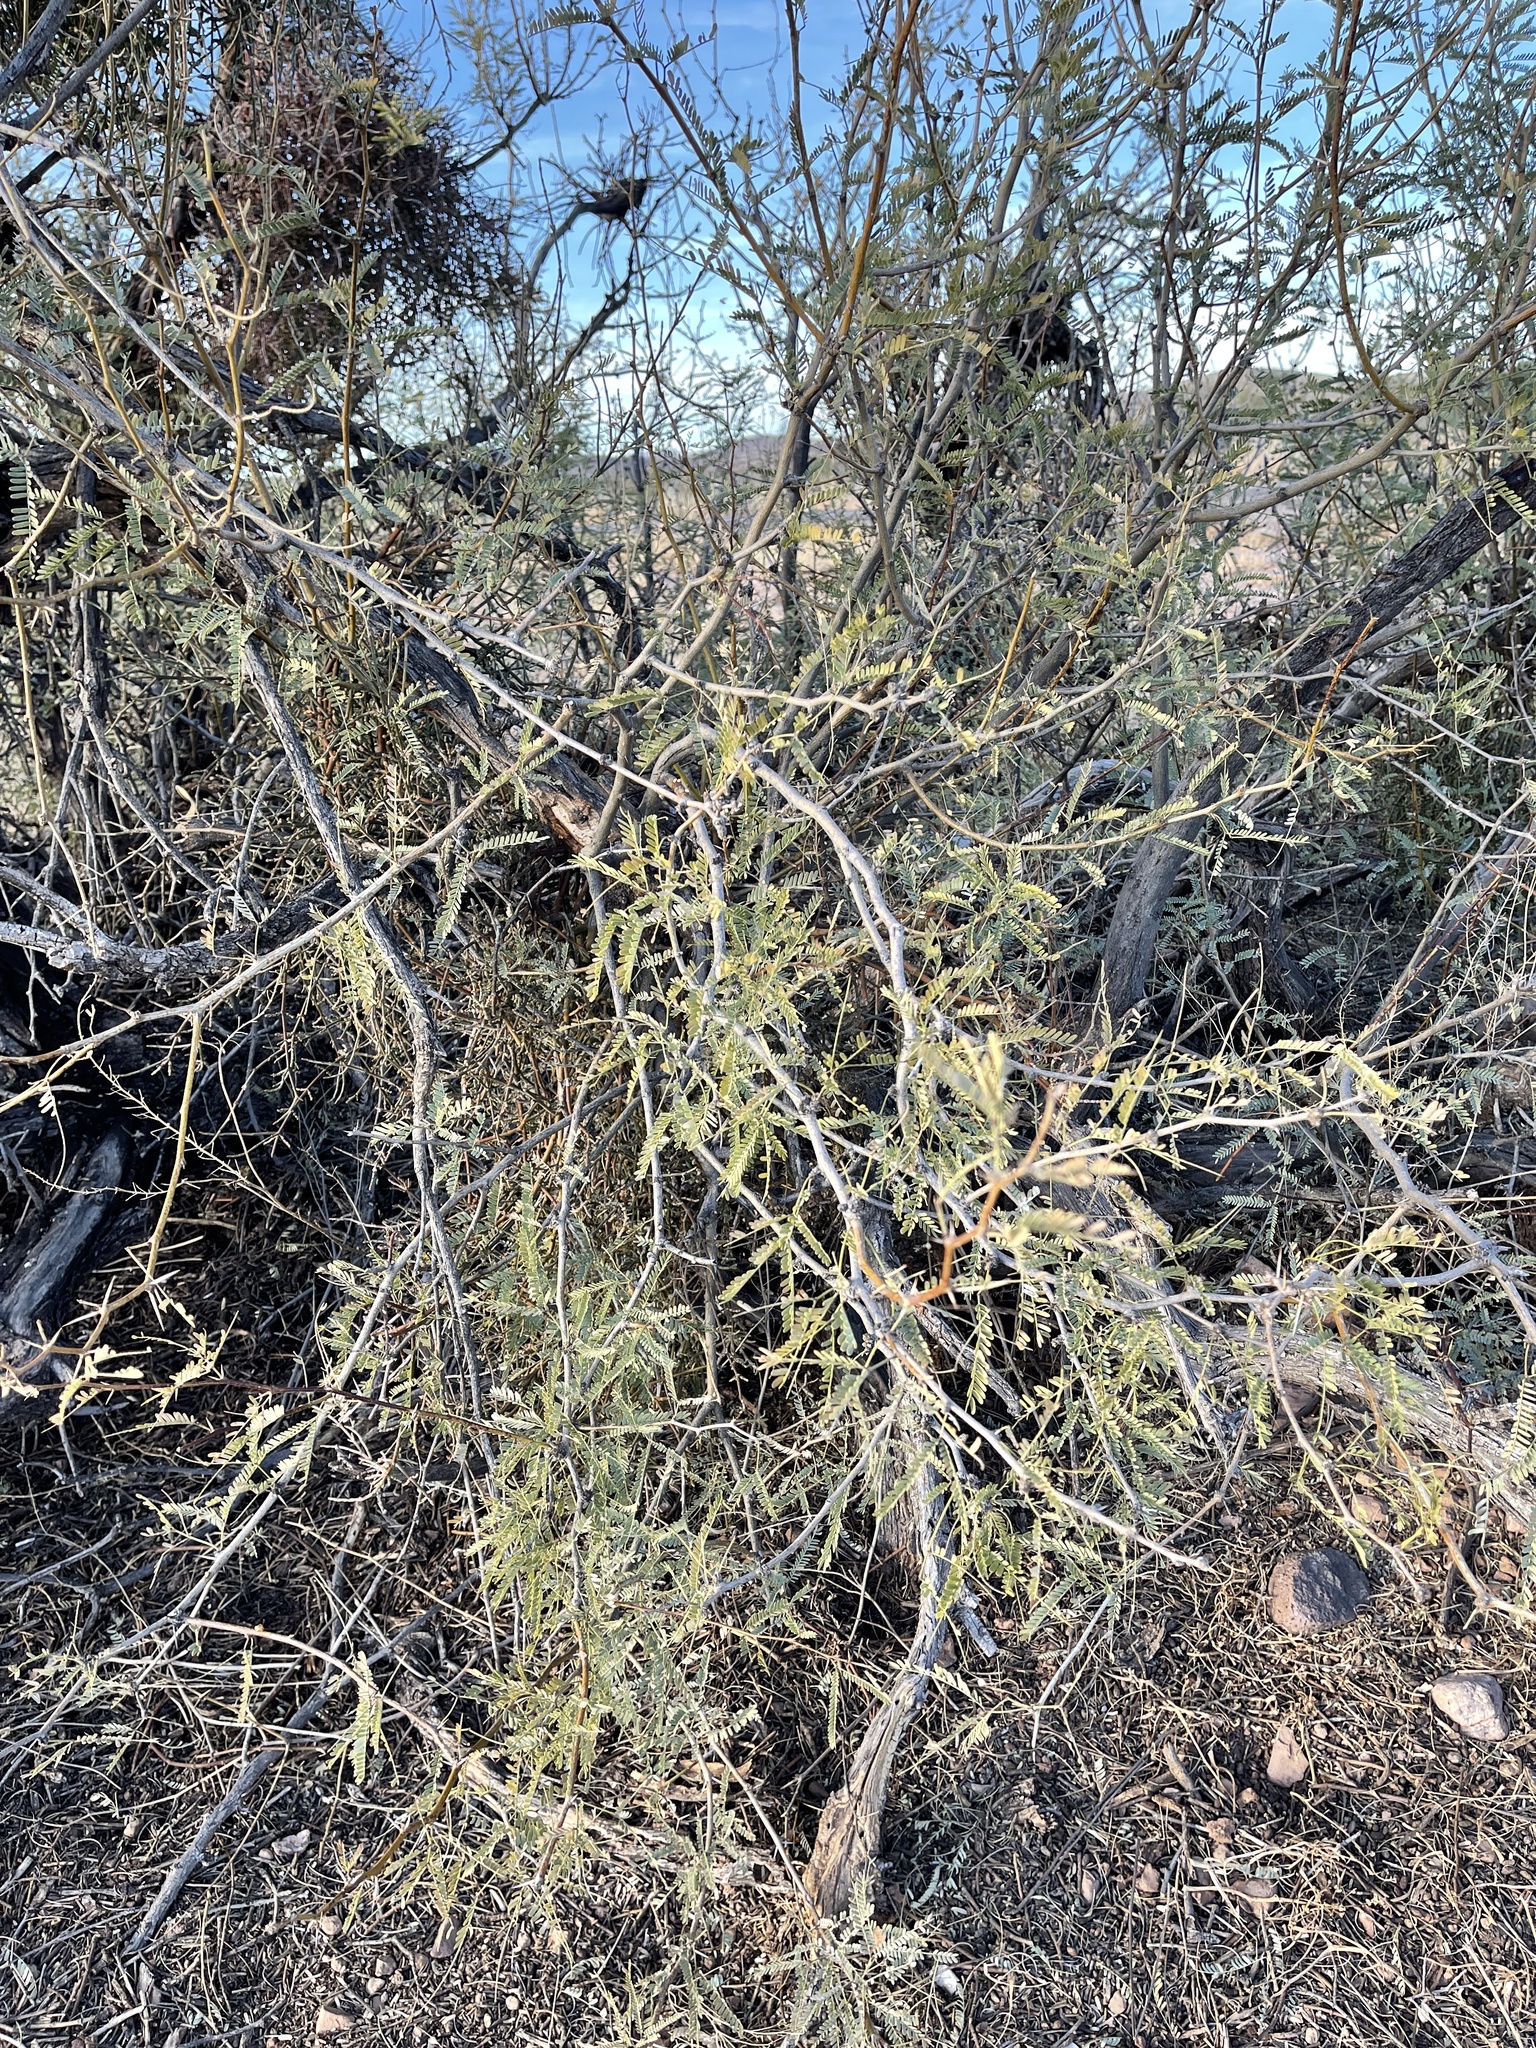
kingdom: Plantae
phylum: Tracheophyta
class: Magnoliopsida
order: Fabales
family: Fabaceae
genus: Prosopis
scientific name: Prosopis velutina
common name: Velvet mesquite
